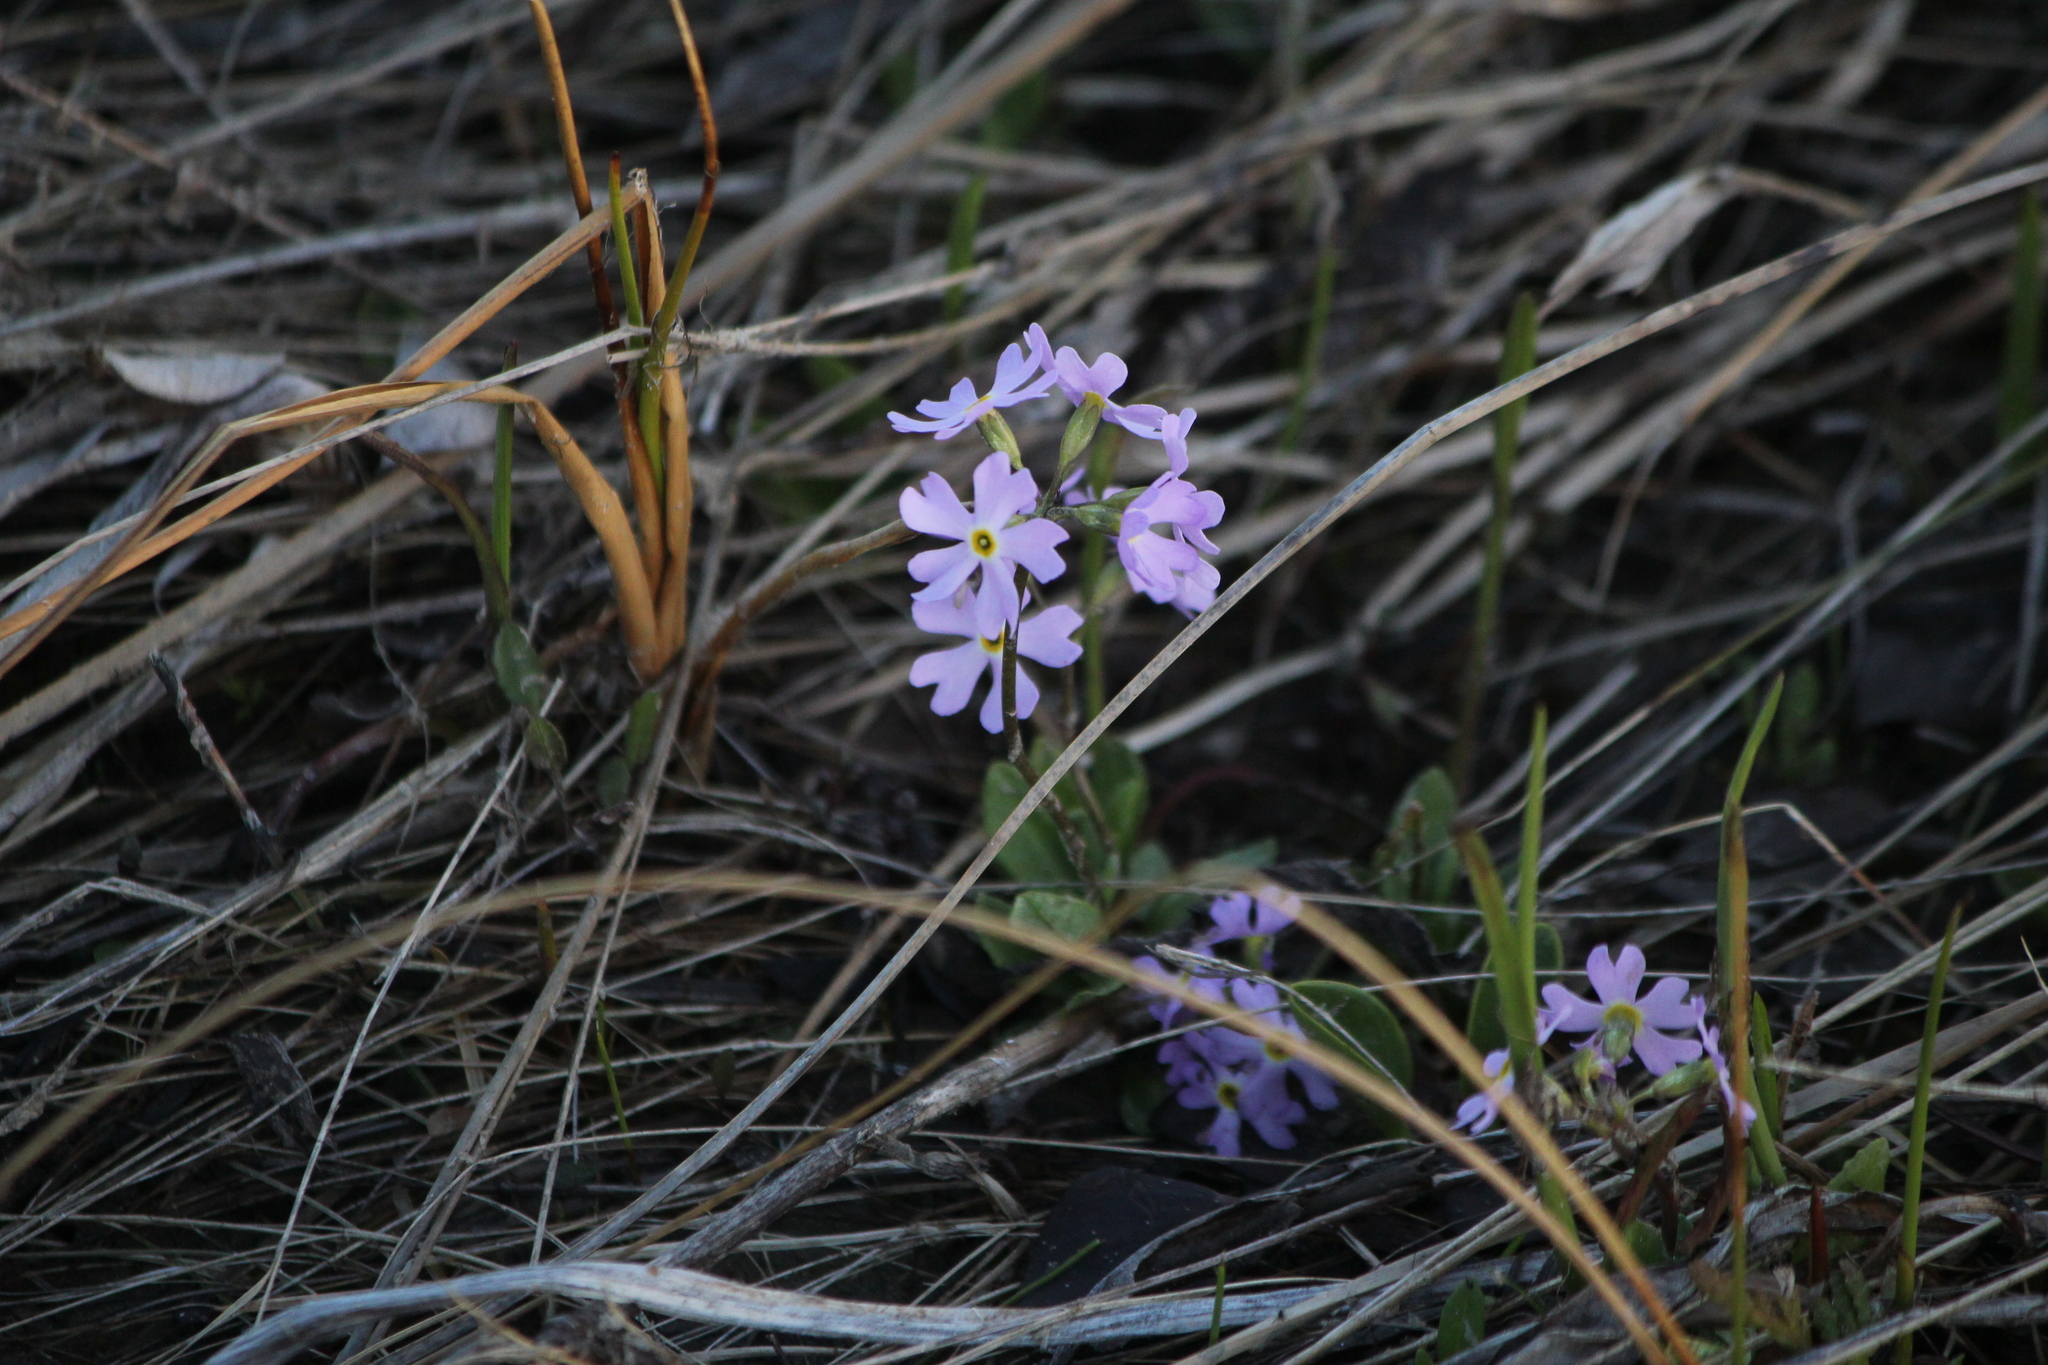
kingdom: Plantae
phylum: Tracheophyta
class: Magnoliopsida
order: Ericales
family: Primulaceae
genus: Primula
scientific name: Primula mistassinica
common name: Bird's-eye primrose
